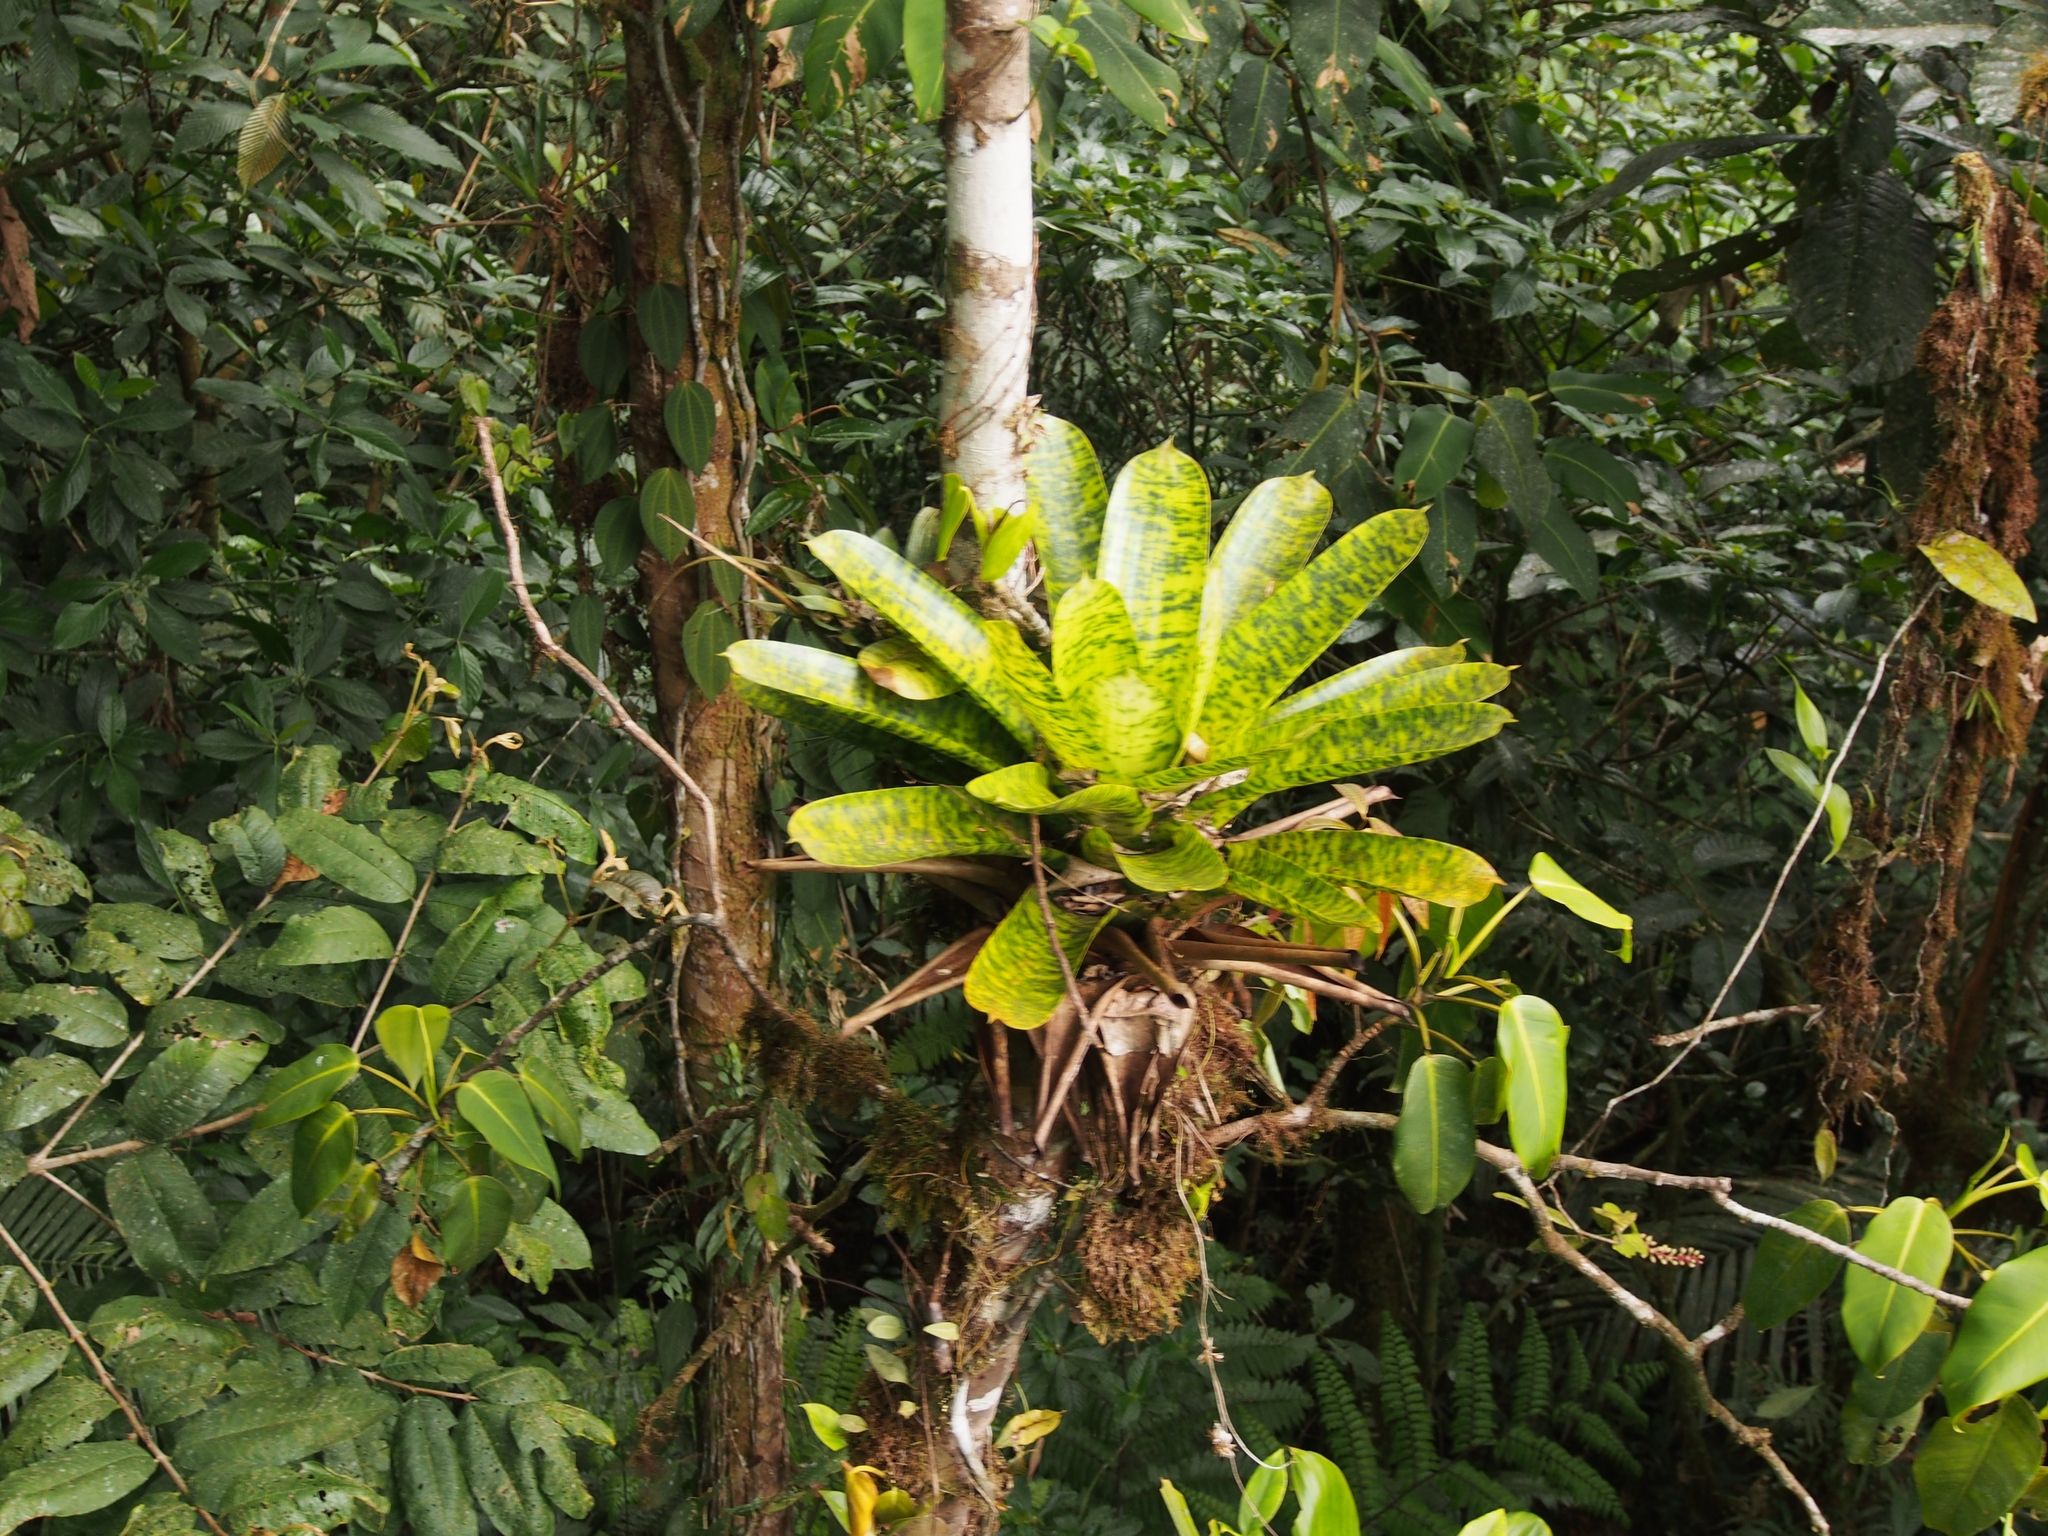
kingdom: Plantae
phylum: Tracheophyta
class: Liliopsida
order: Poales
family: Bromeliaceae
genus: Werauhia
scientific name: Werauhia kupperiana
